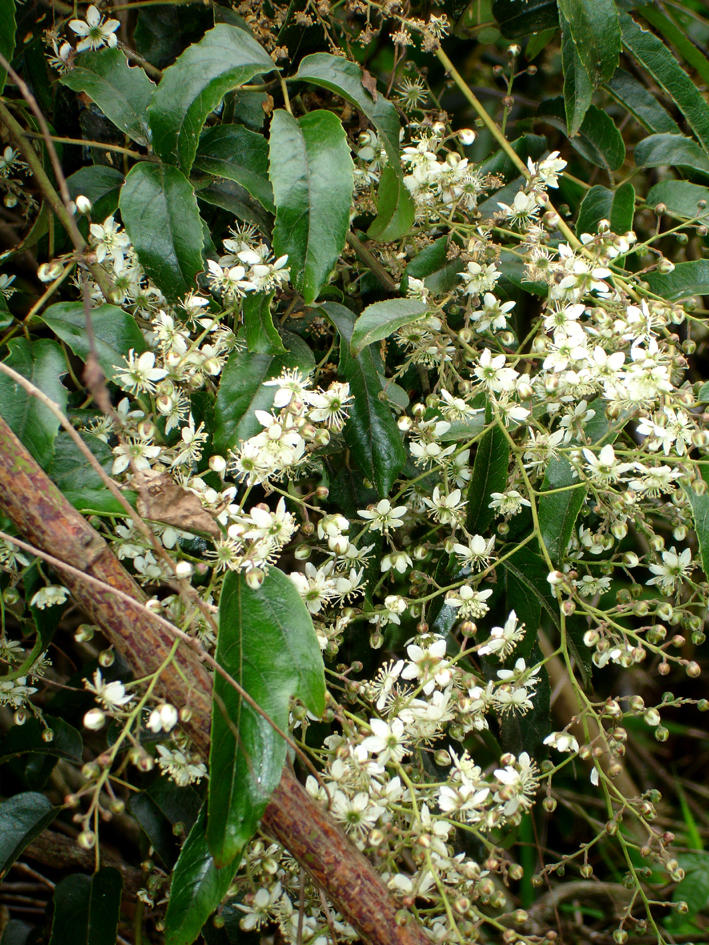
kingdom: Plantae
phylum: Tracheophyta
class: Magnoliopsida
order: Rosales
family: Rosaceae
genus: Rubus
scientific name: Rubus cissoides
